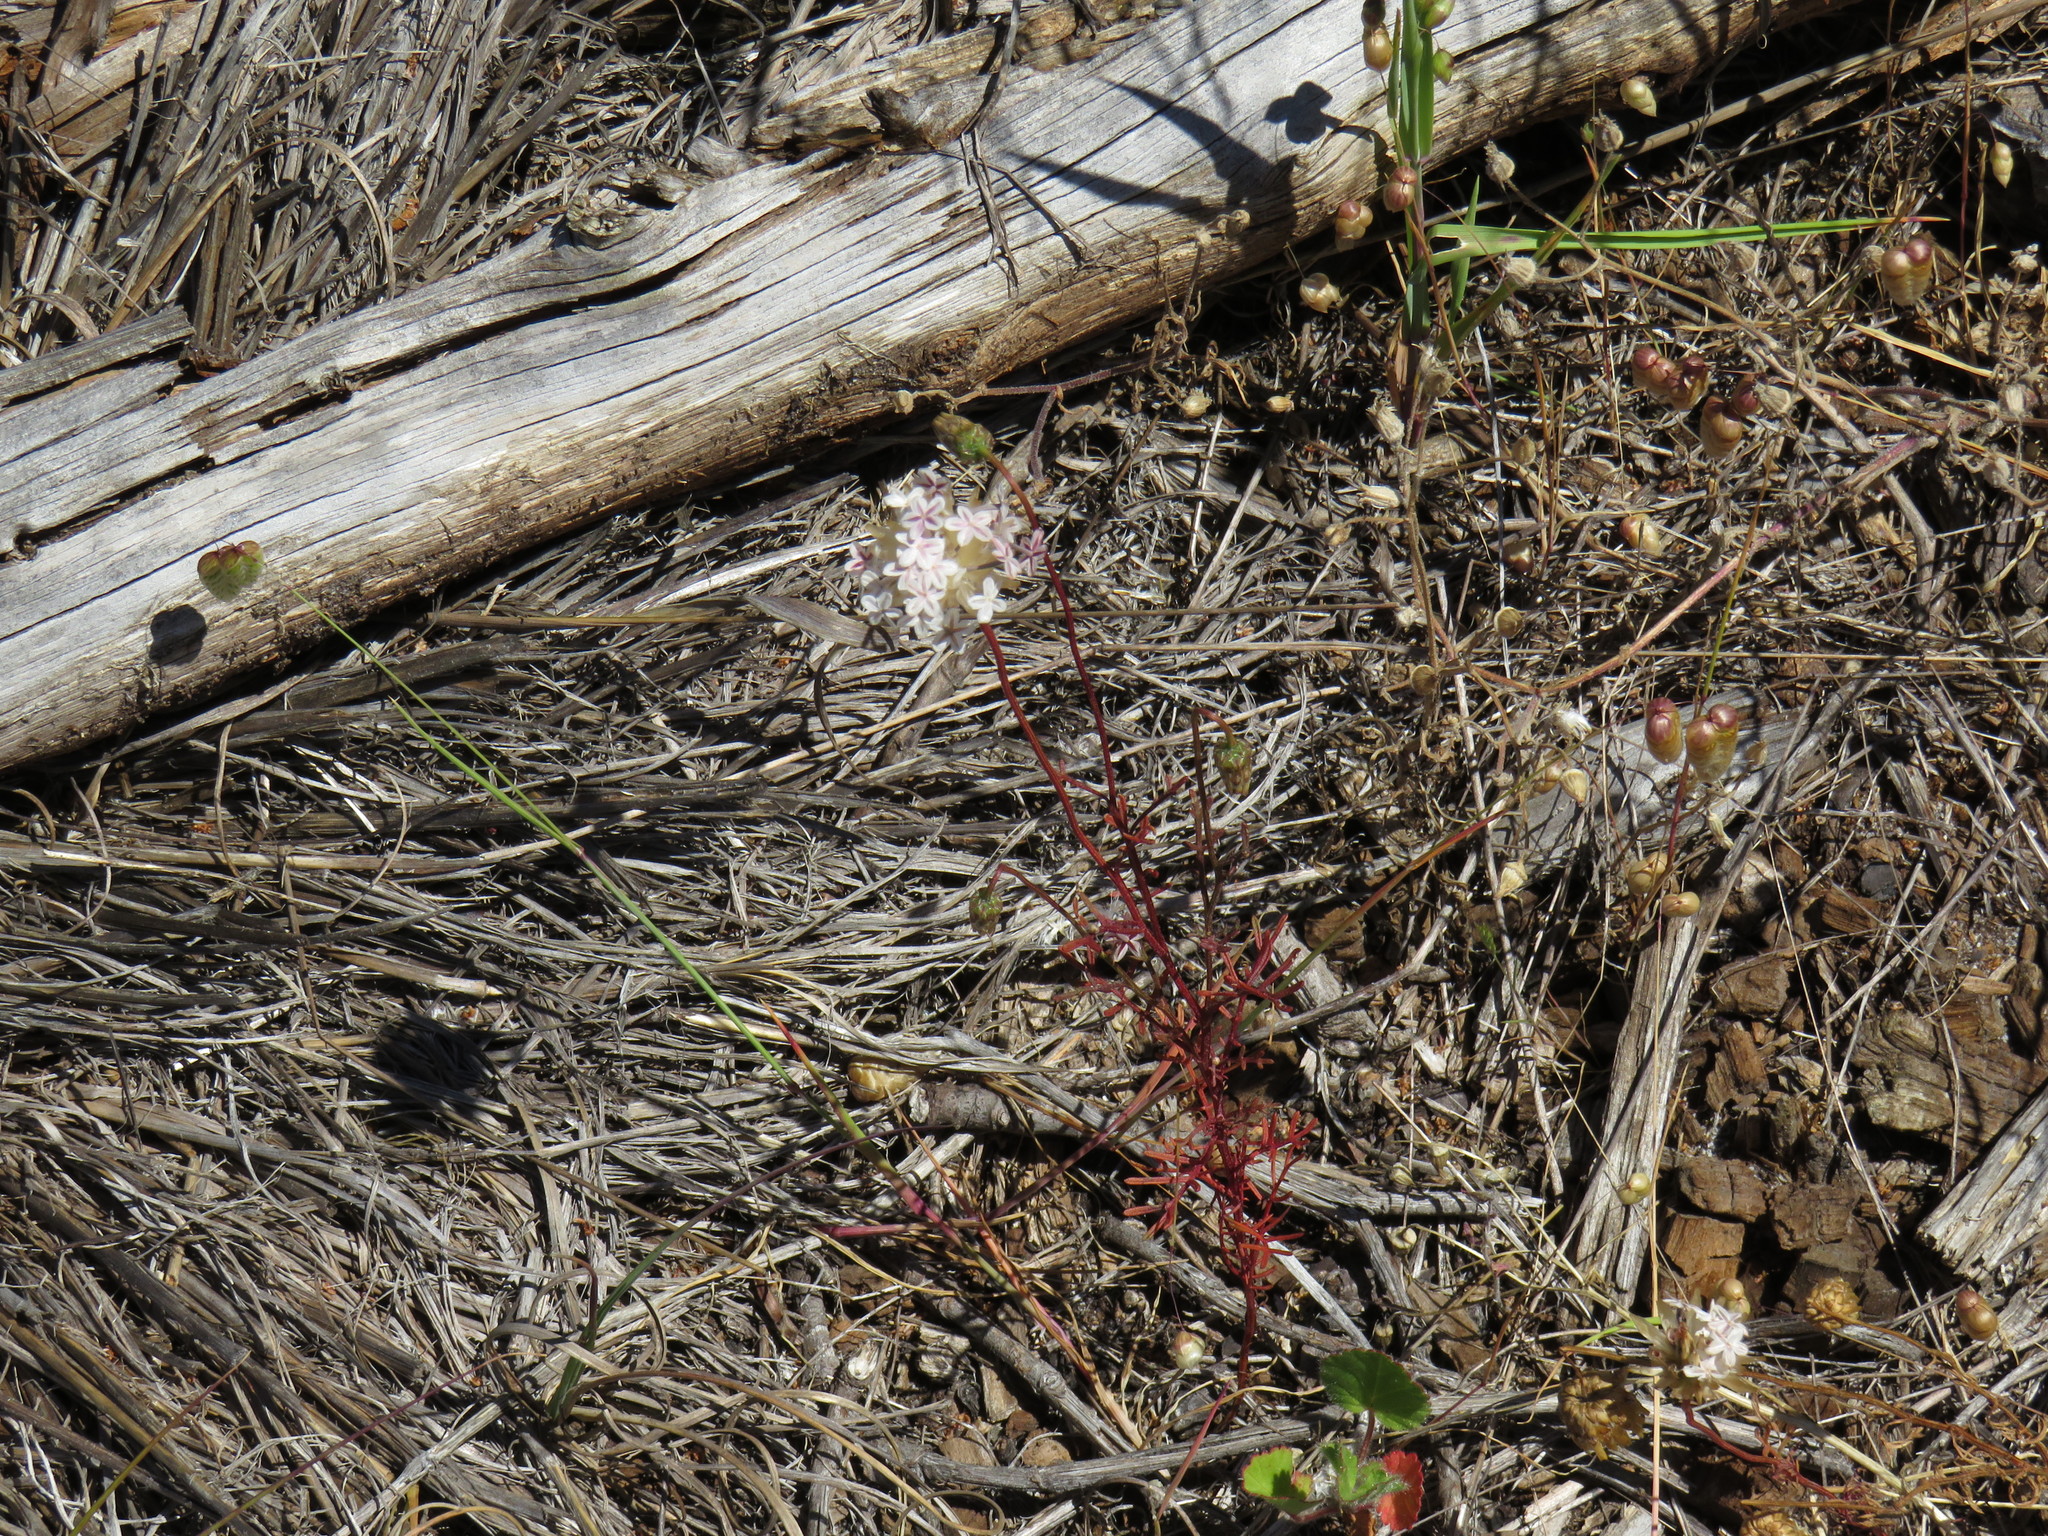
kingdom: Plantae
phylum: Tracheophyta
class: Magnoliopsida
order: Asterales
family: Asteraceae
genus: Ursinia
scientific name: Ursinia anthemoides
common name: Ursinia
